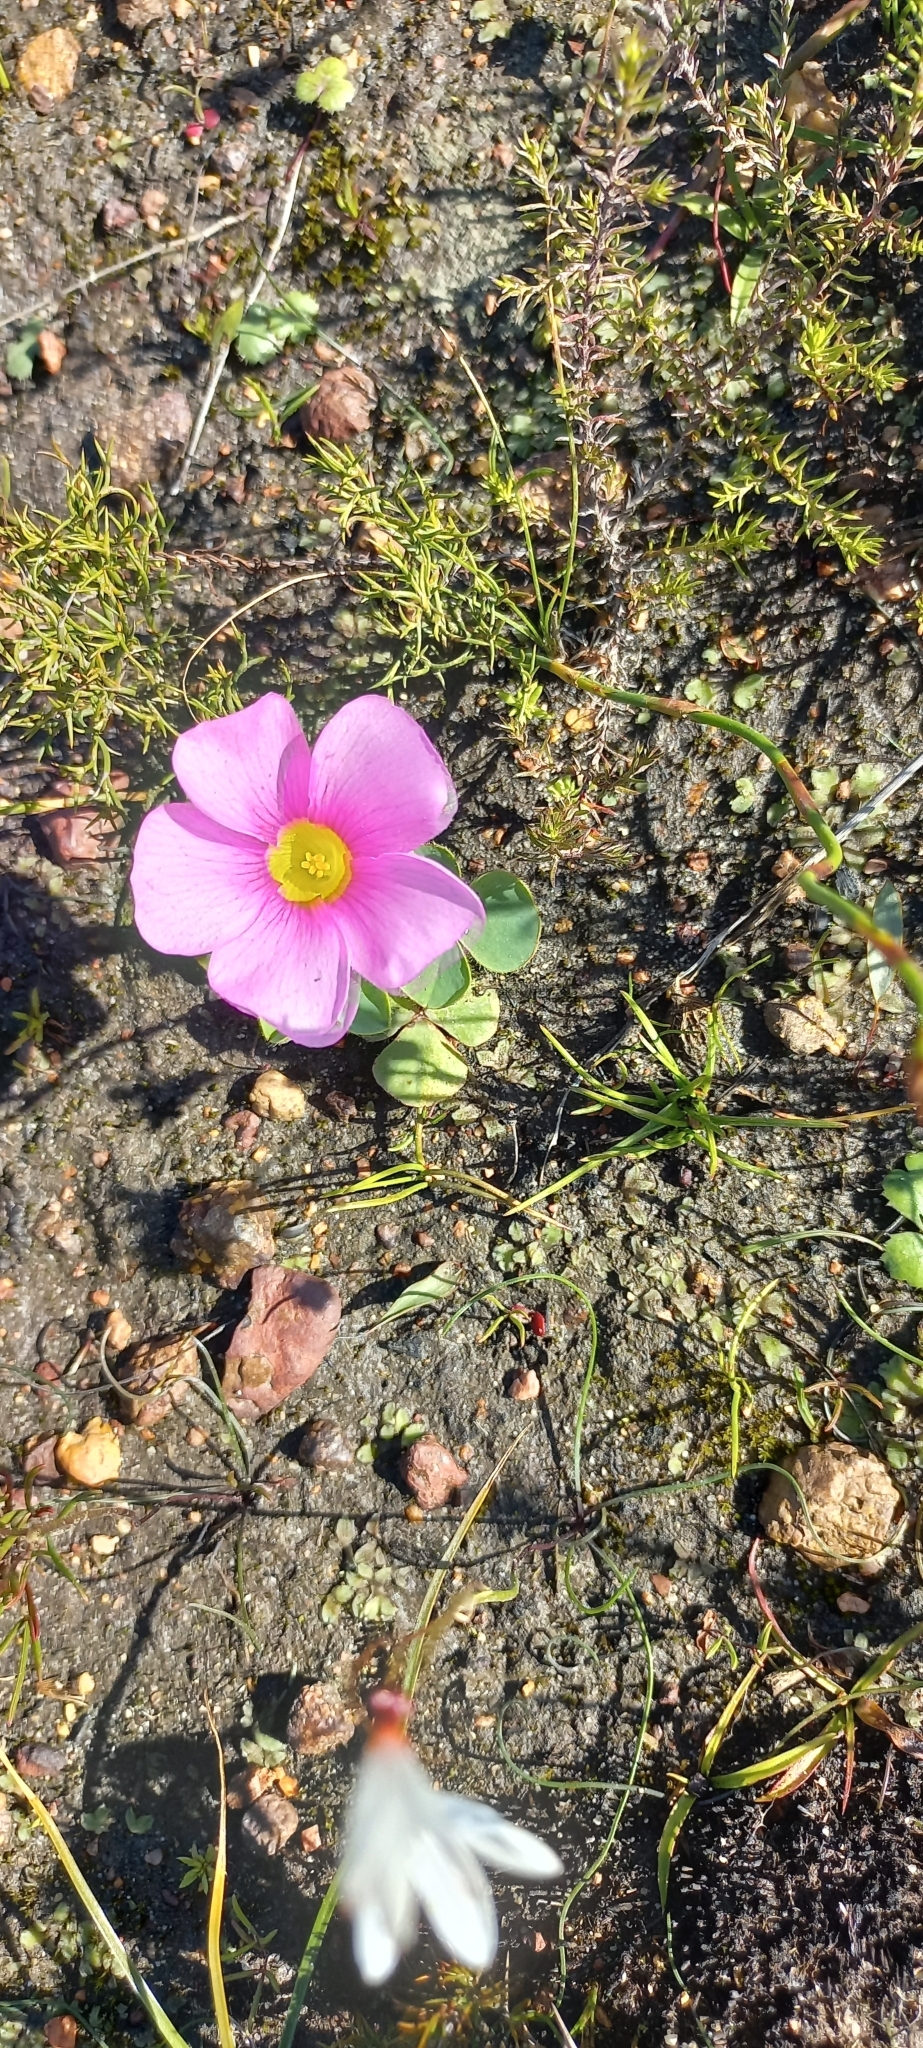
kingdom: Plantae
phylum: Tracheophyta
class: Magnoliopsida
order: Oxalidales
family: Oxalidaceae
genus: Oxalis
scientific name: Oxalis purpurea
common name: Purple woodsorrel
